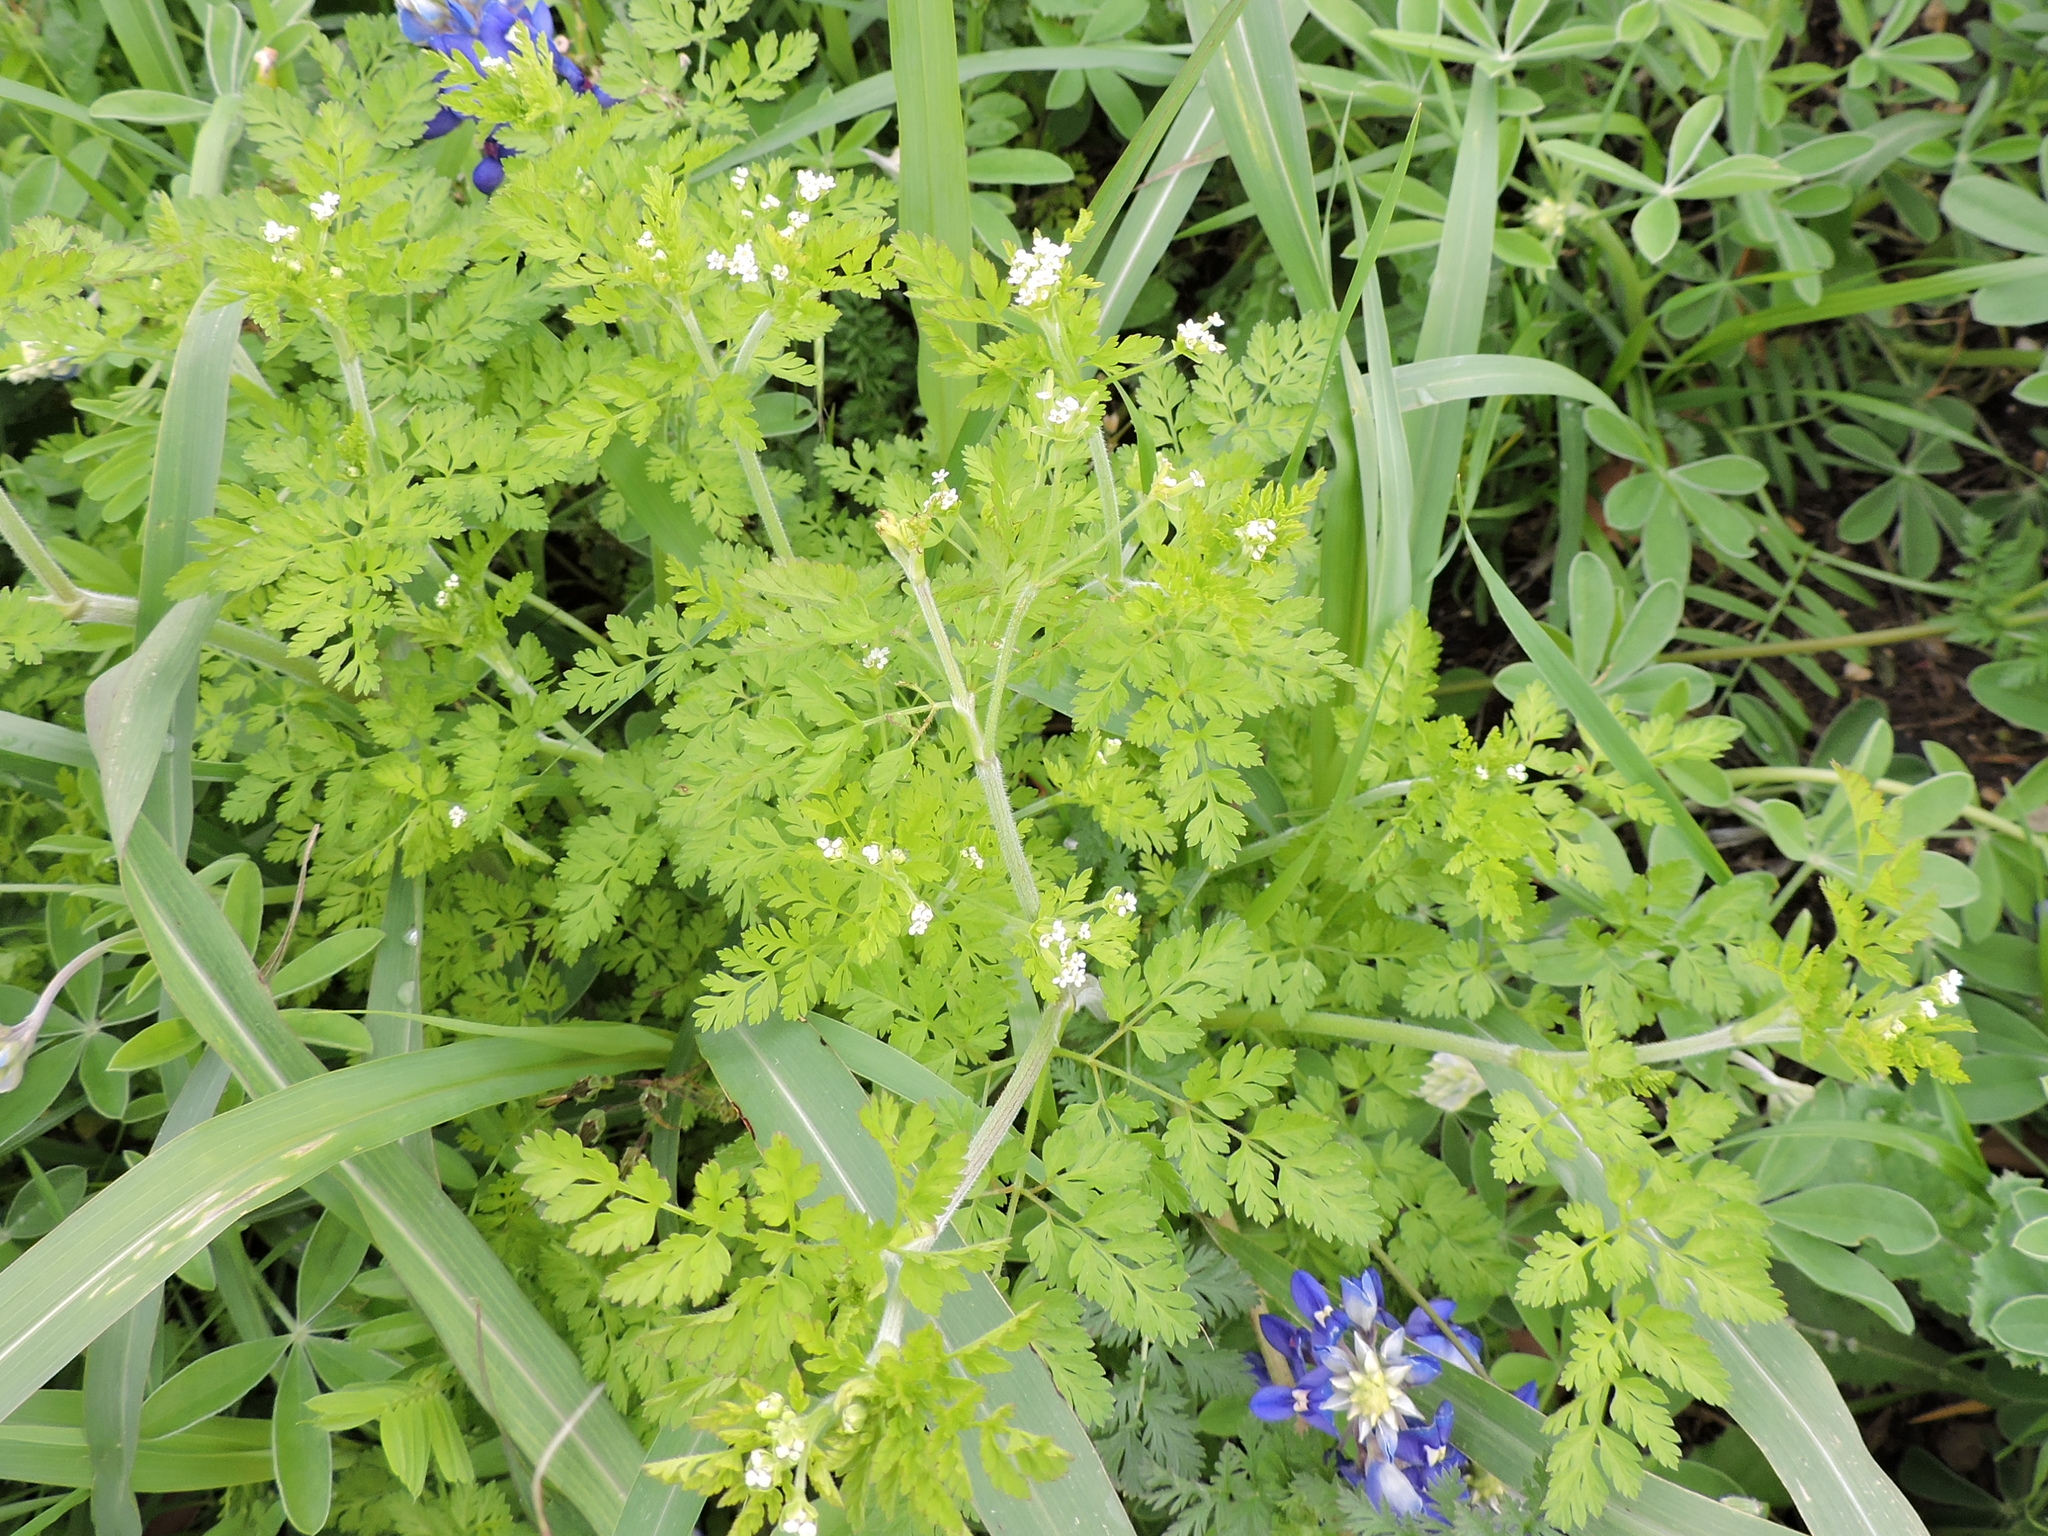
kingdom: Plantae
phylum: Tracheophyta
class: Magnoliopsida
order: Apiales
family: Apiaceae
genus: Chaerophyllum
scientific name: Chaerophyllum tainturieri
